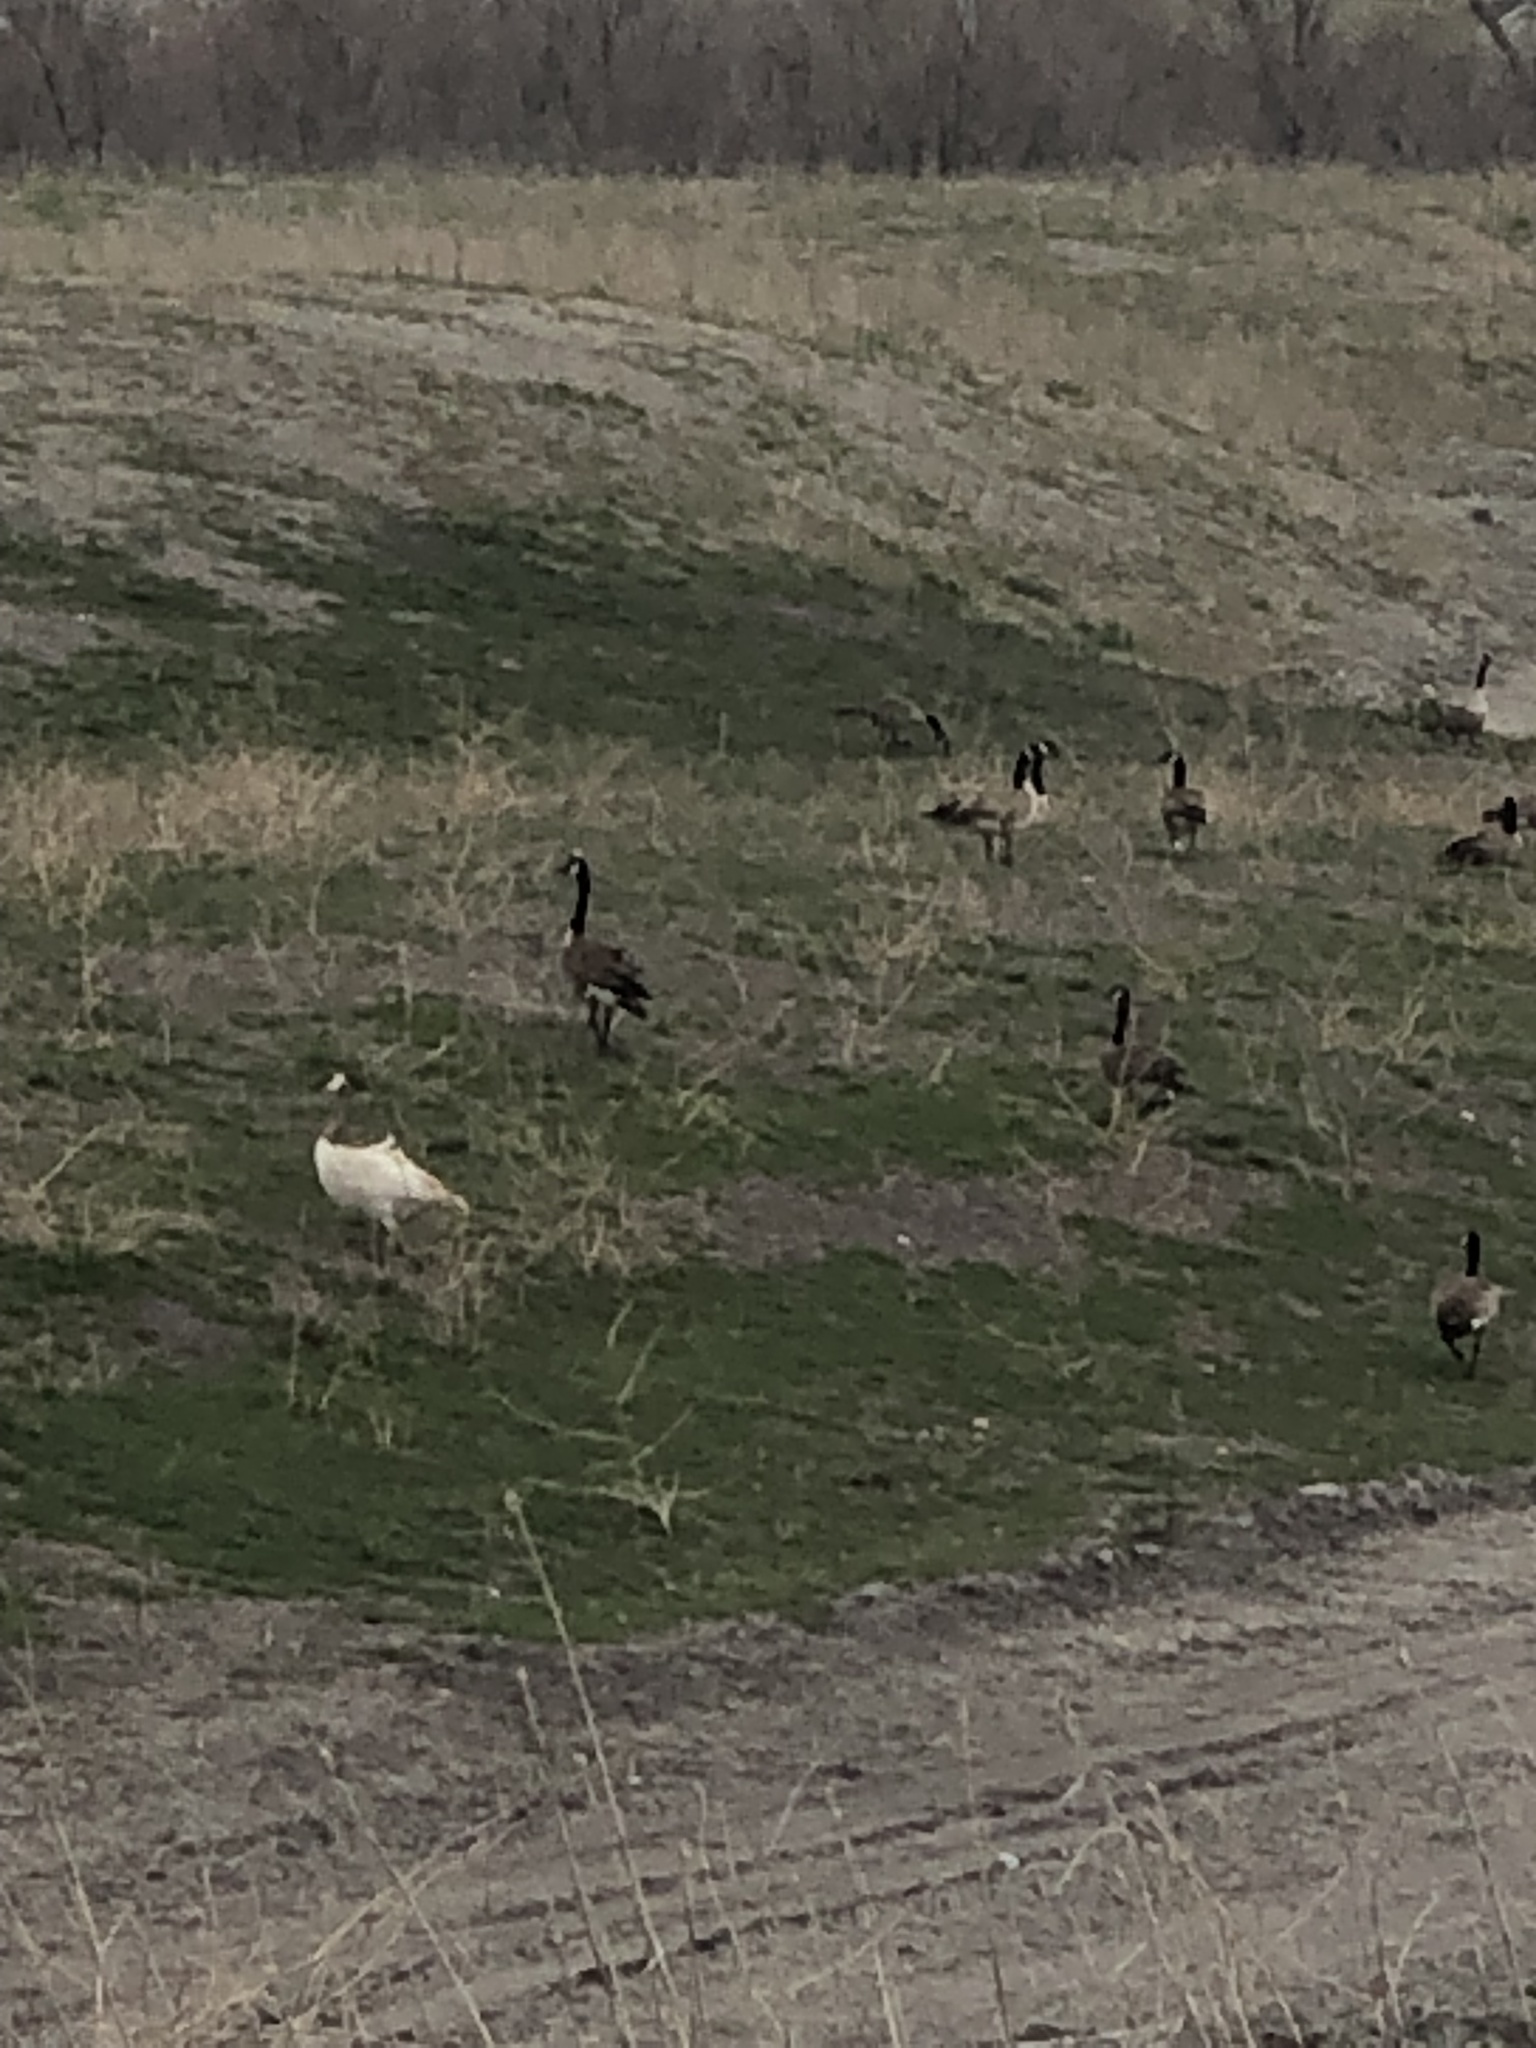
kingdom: Animalia
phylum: Chordata
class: Aves
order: Anseriformes
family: Anatidae
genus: Branta
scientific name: Branta canadensis
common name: Canada goose
